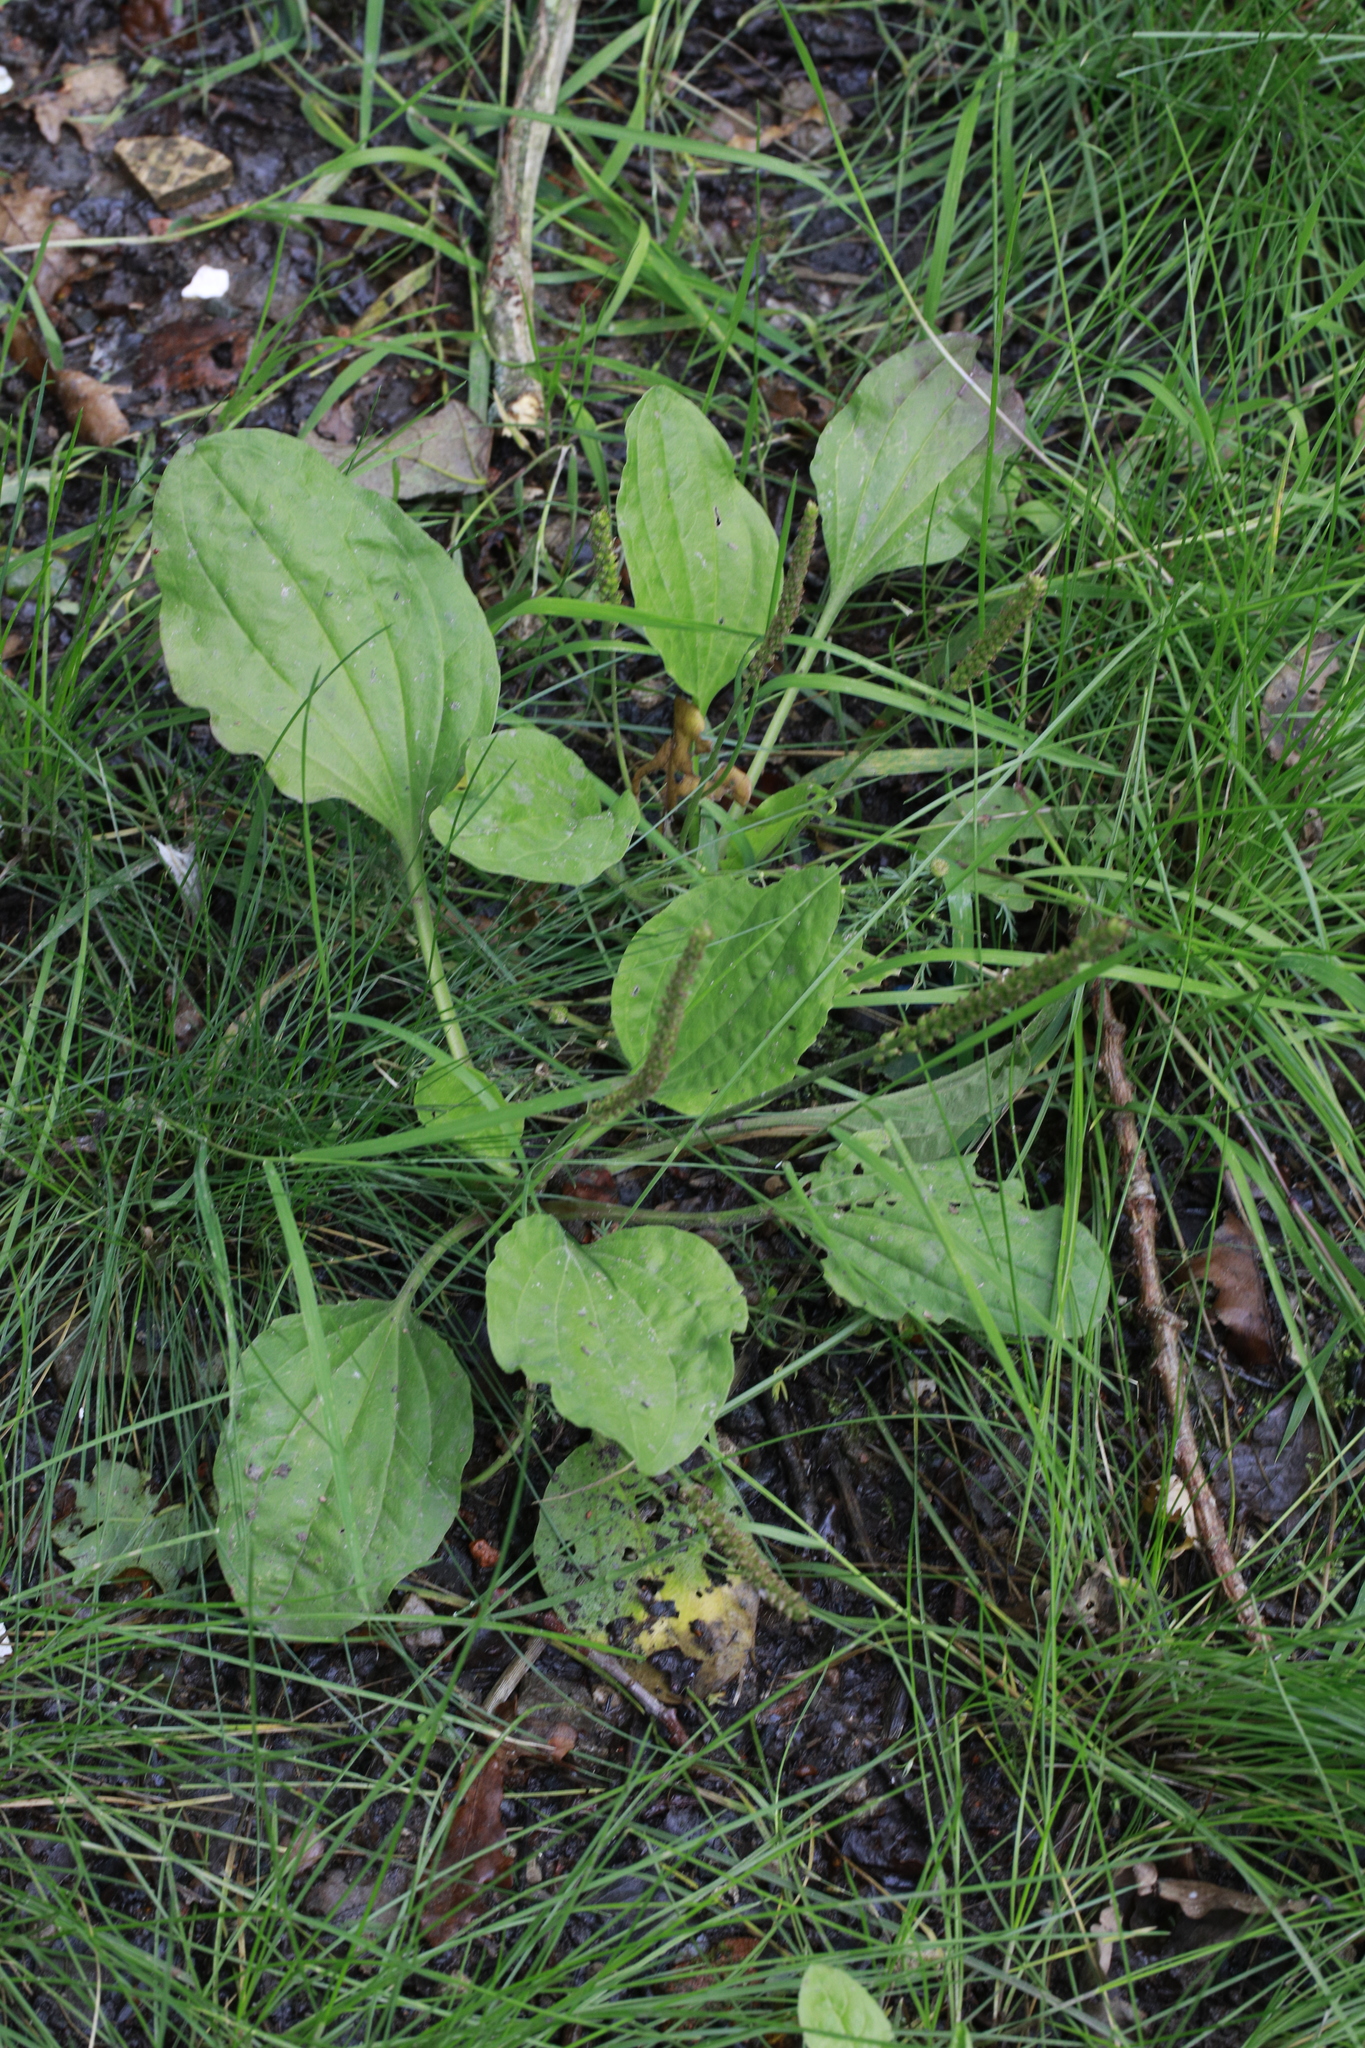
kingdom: Plantae
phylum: Tracheophyta
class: Magnoliopsida
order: Lamiales
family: Plantaginaceae
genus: Plantago
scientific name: Plantago major
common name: Common plantain
